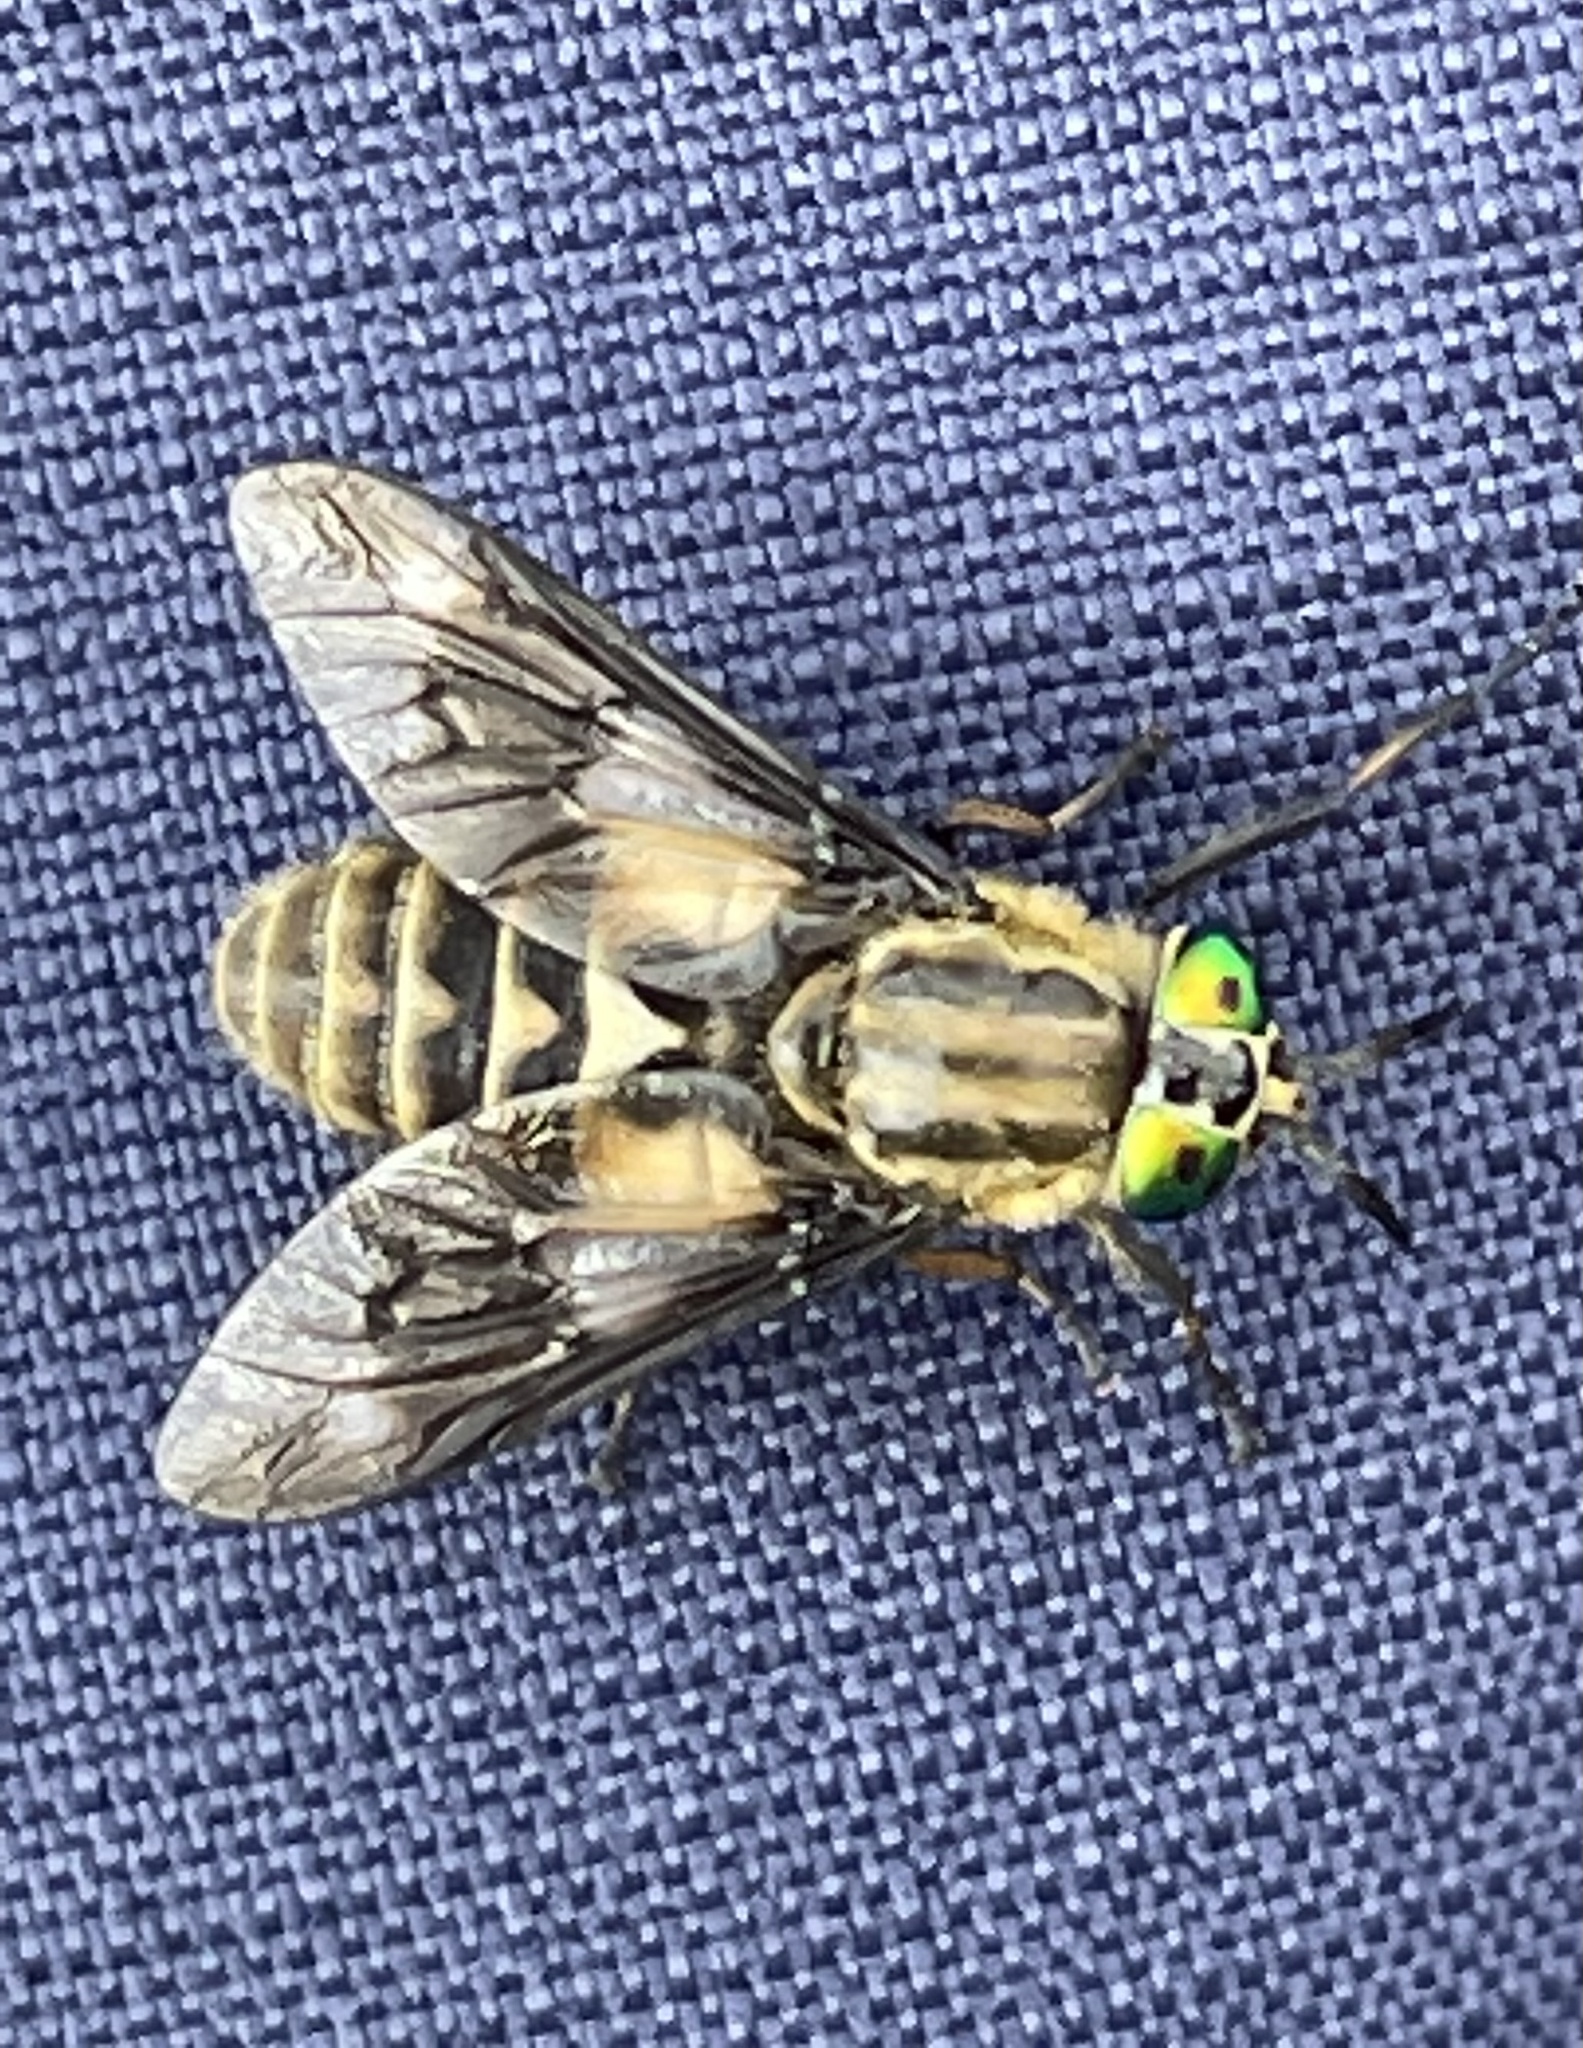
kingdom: Animalia
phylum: Arthropoda
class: Insecta
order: Diptera
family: Tabanidae
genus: Chrysops
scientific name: Chrysops relictus
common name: Twin-lobed deerfly
